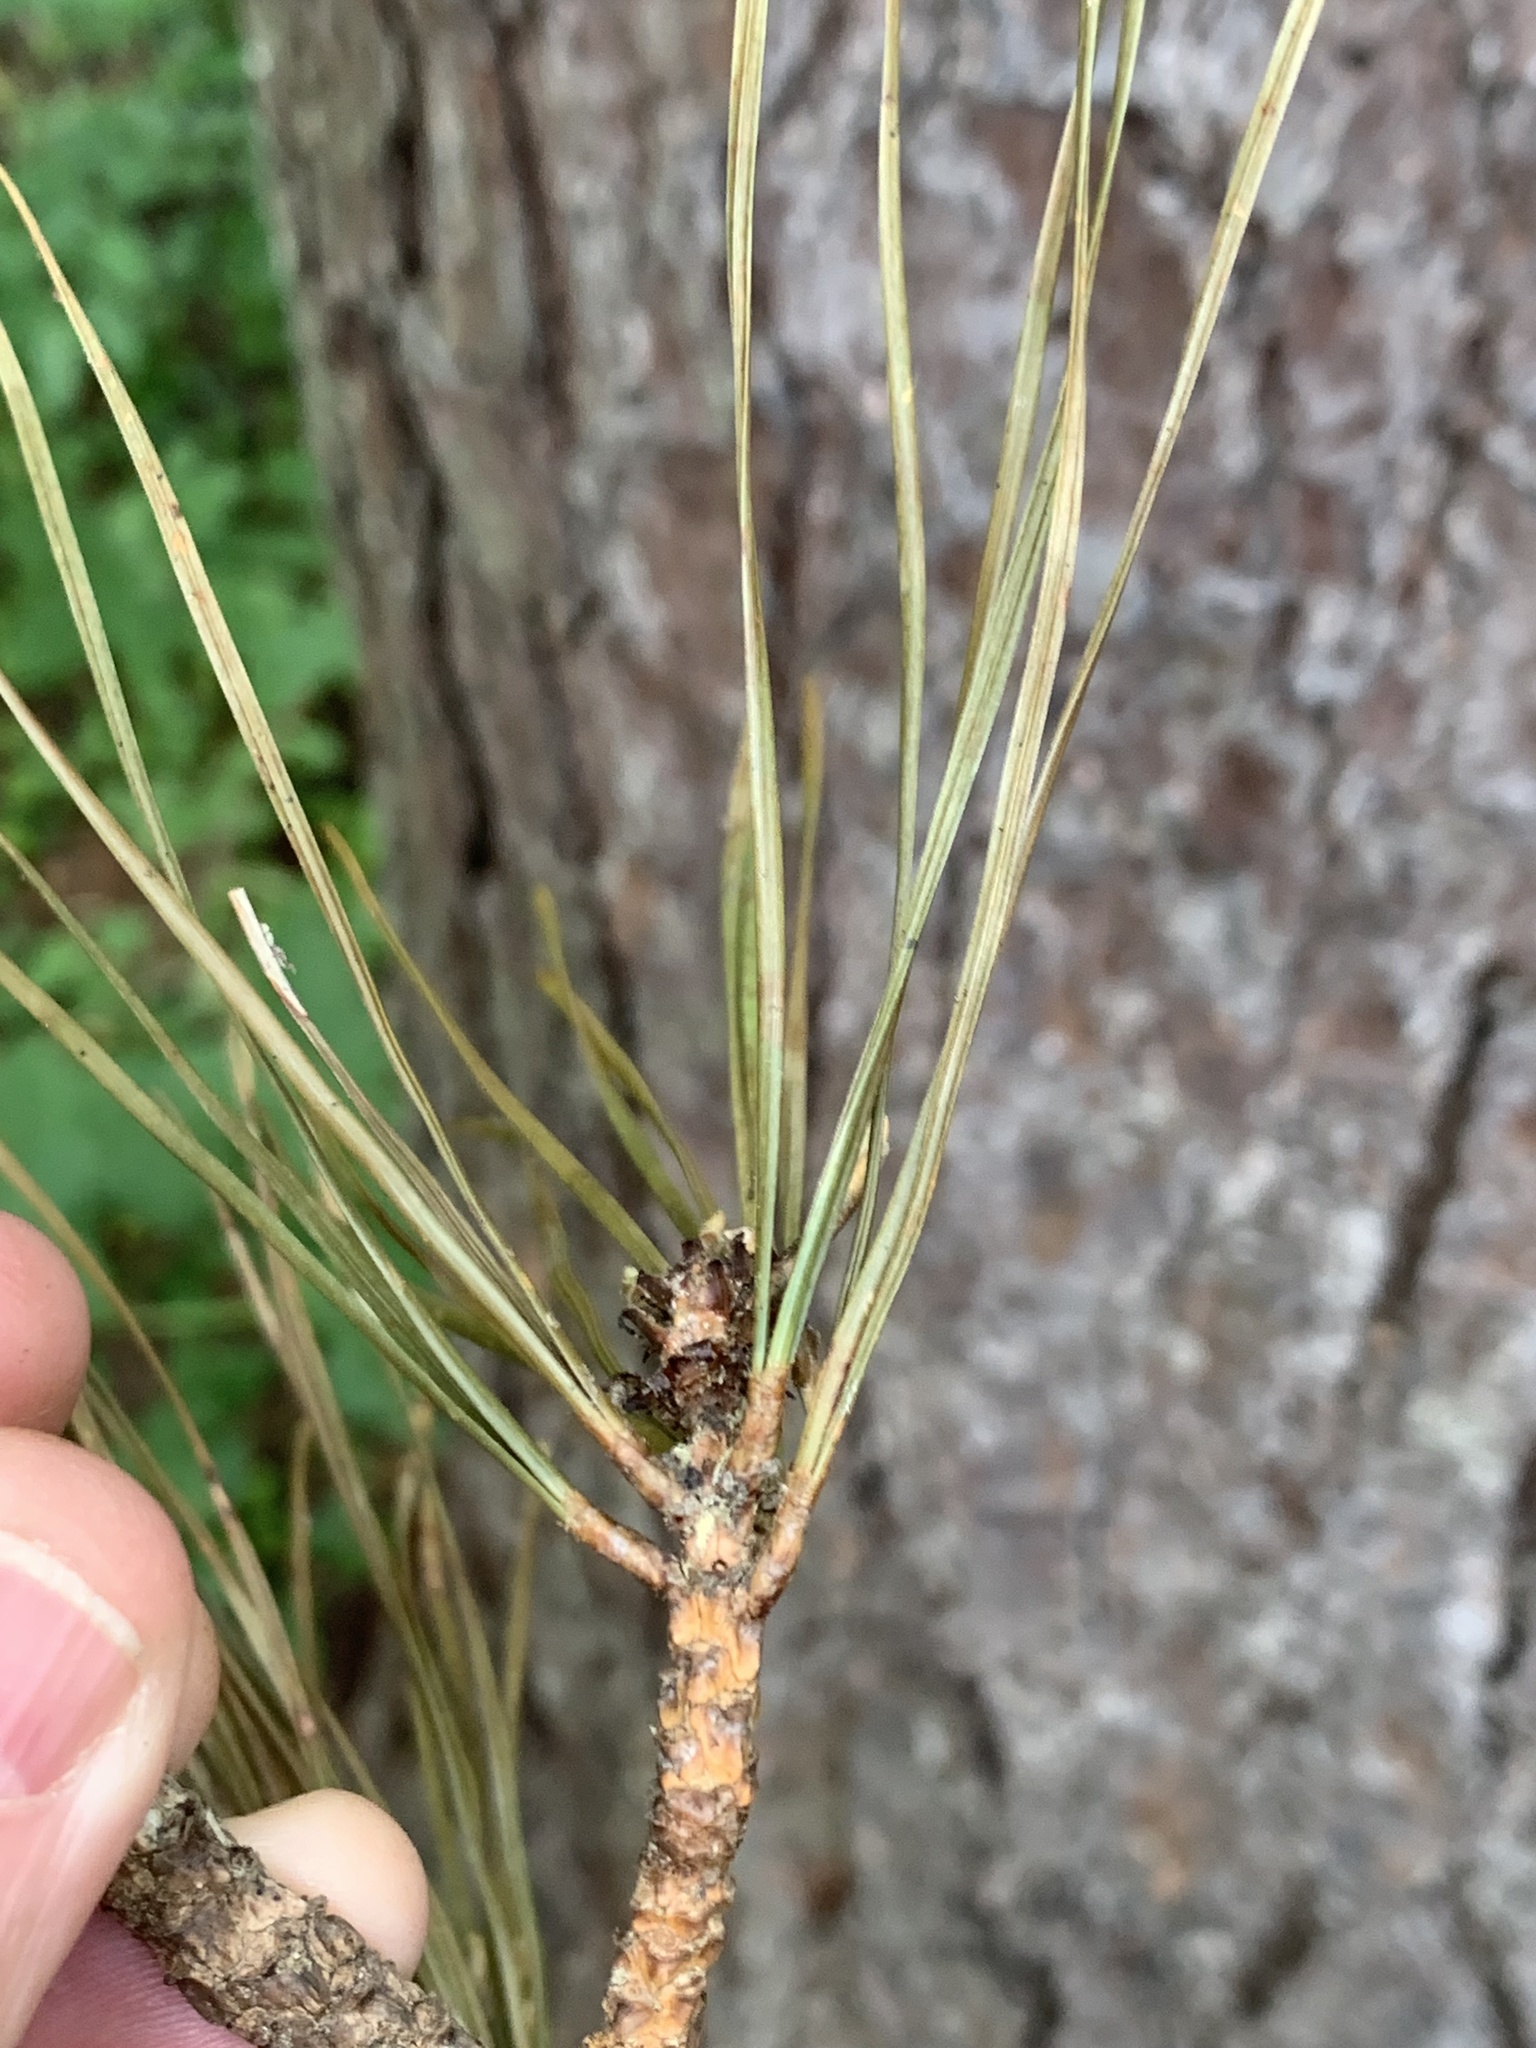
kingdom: Plantae
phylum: Tracheophyta
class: Pinopsida
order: Pinales
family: Pinaceae
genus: Pinus
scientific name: Pinus echinata
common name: Shortleaf pine
